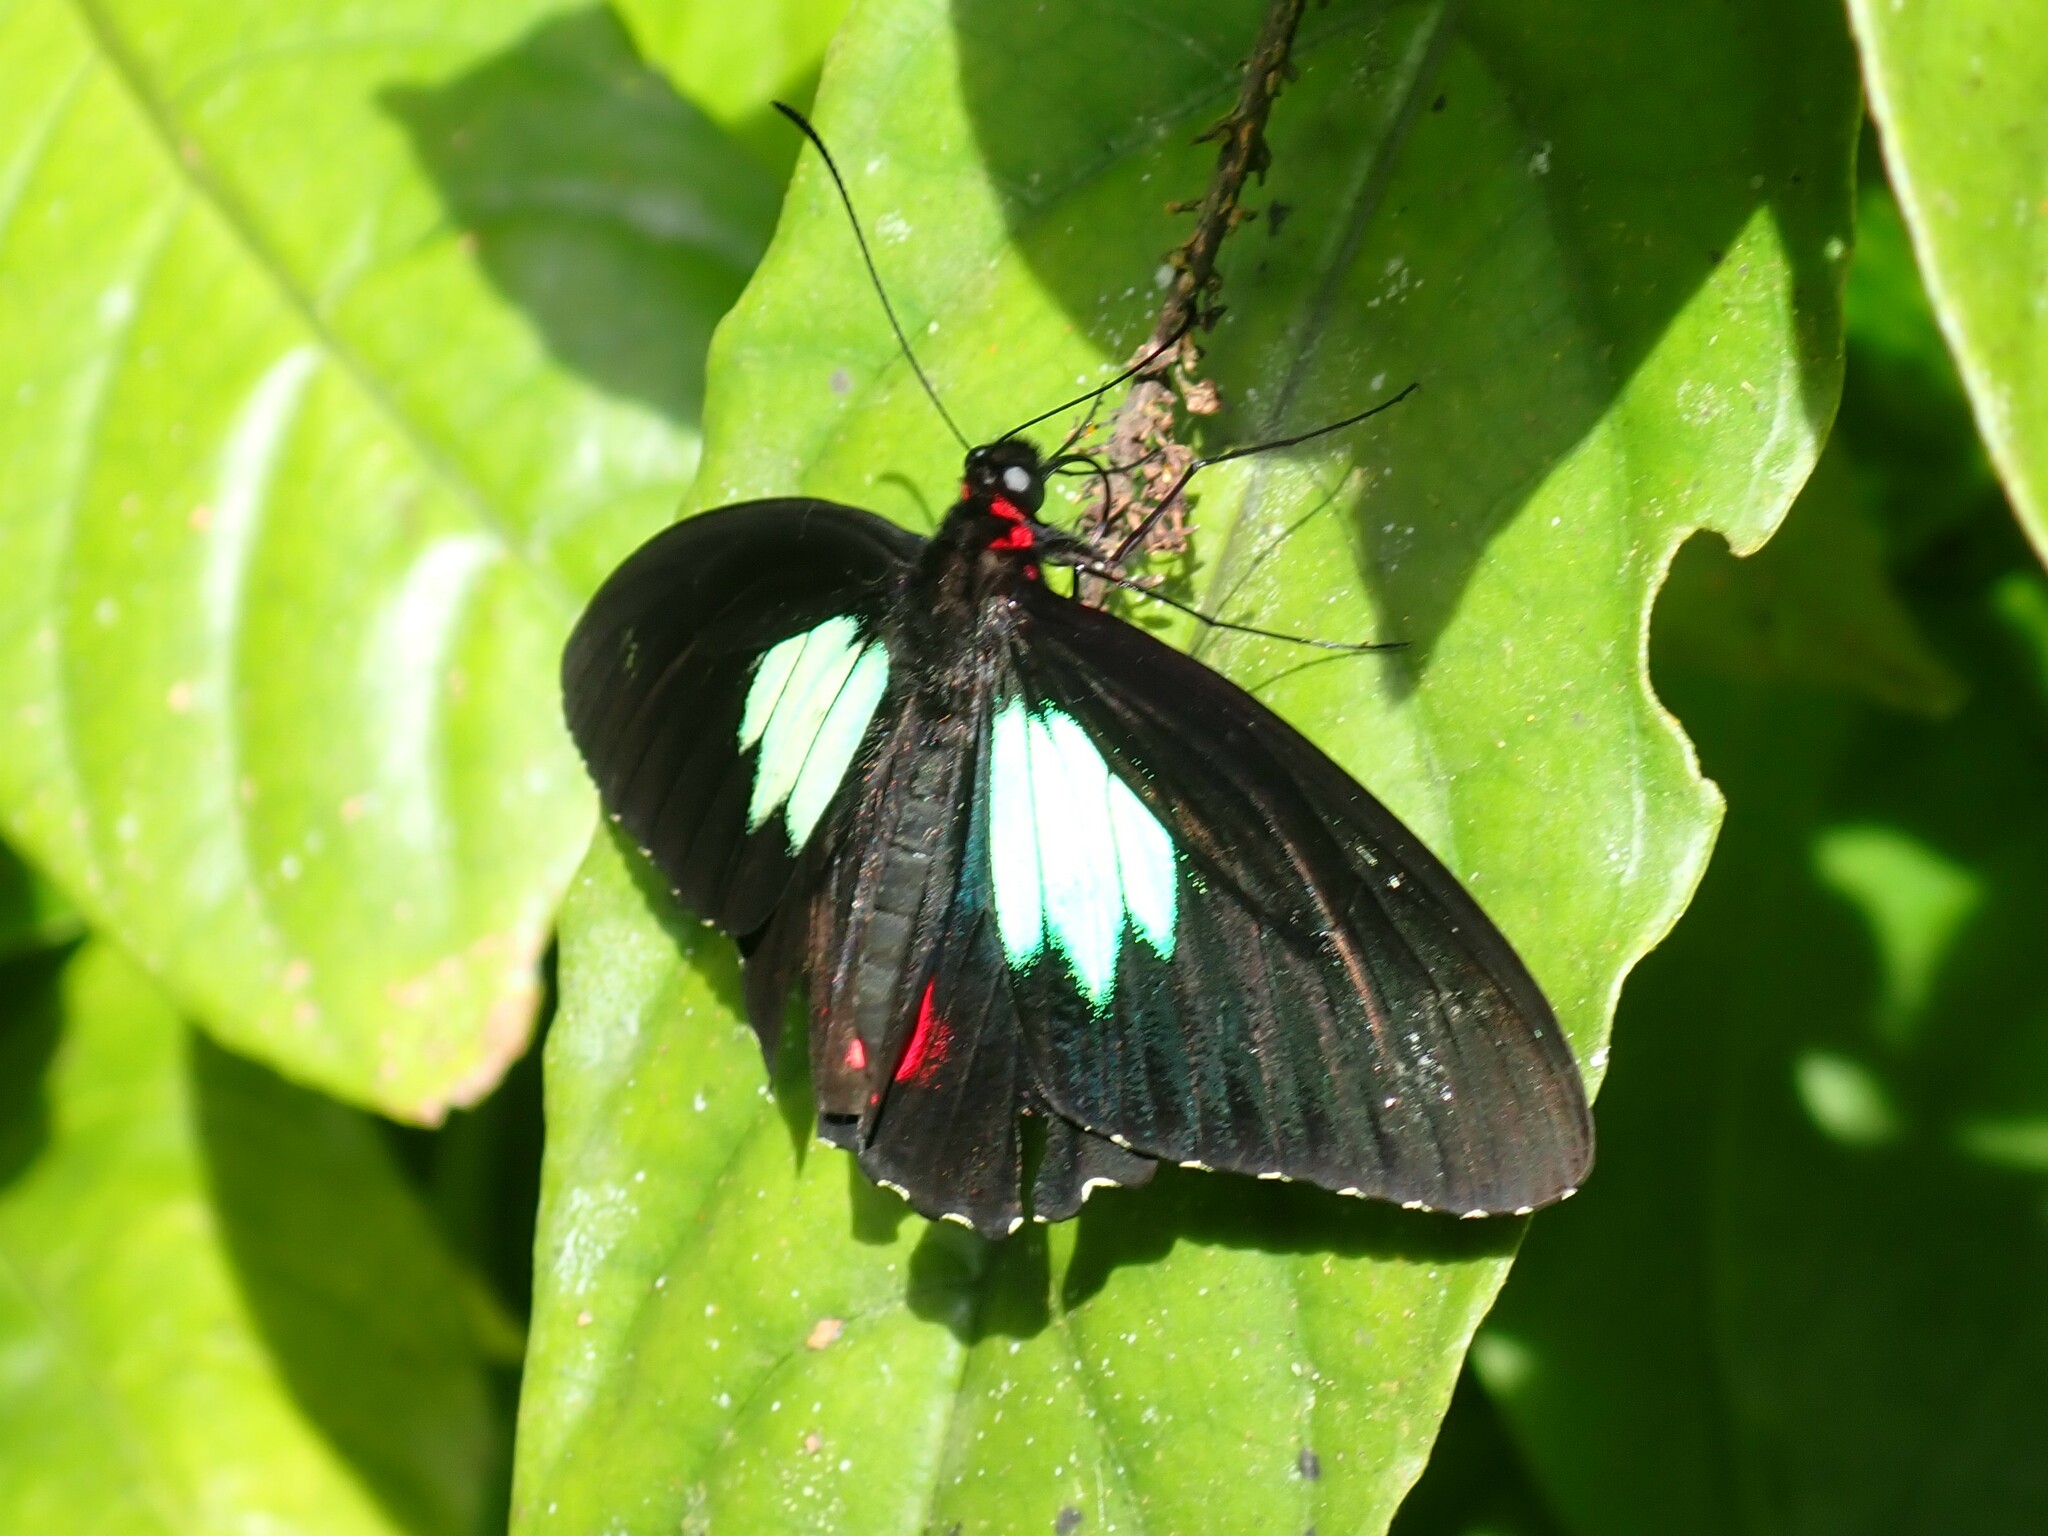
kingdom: Animalia
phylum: Arthropoda
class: Insecta
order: Lepidoptera
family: Papilionidae
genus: Parides
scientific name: Parides sesostris
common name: Southern cattle heart
